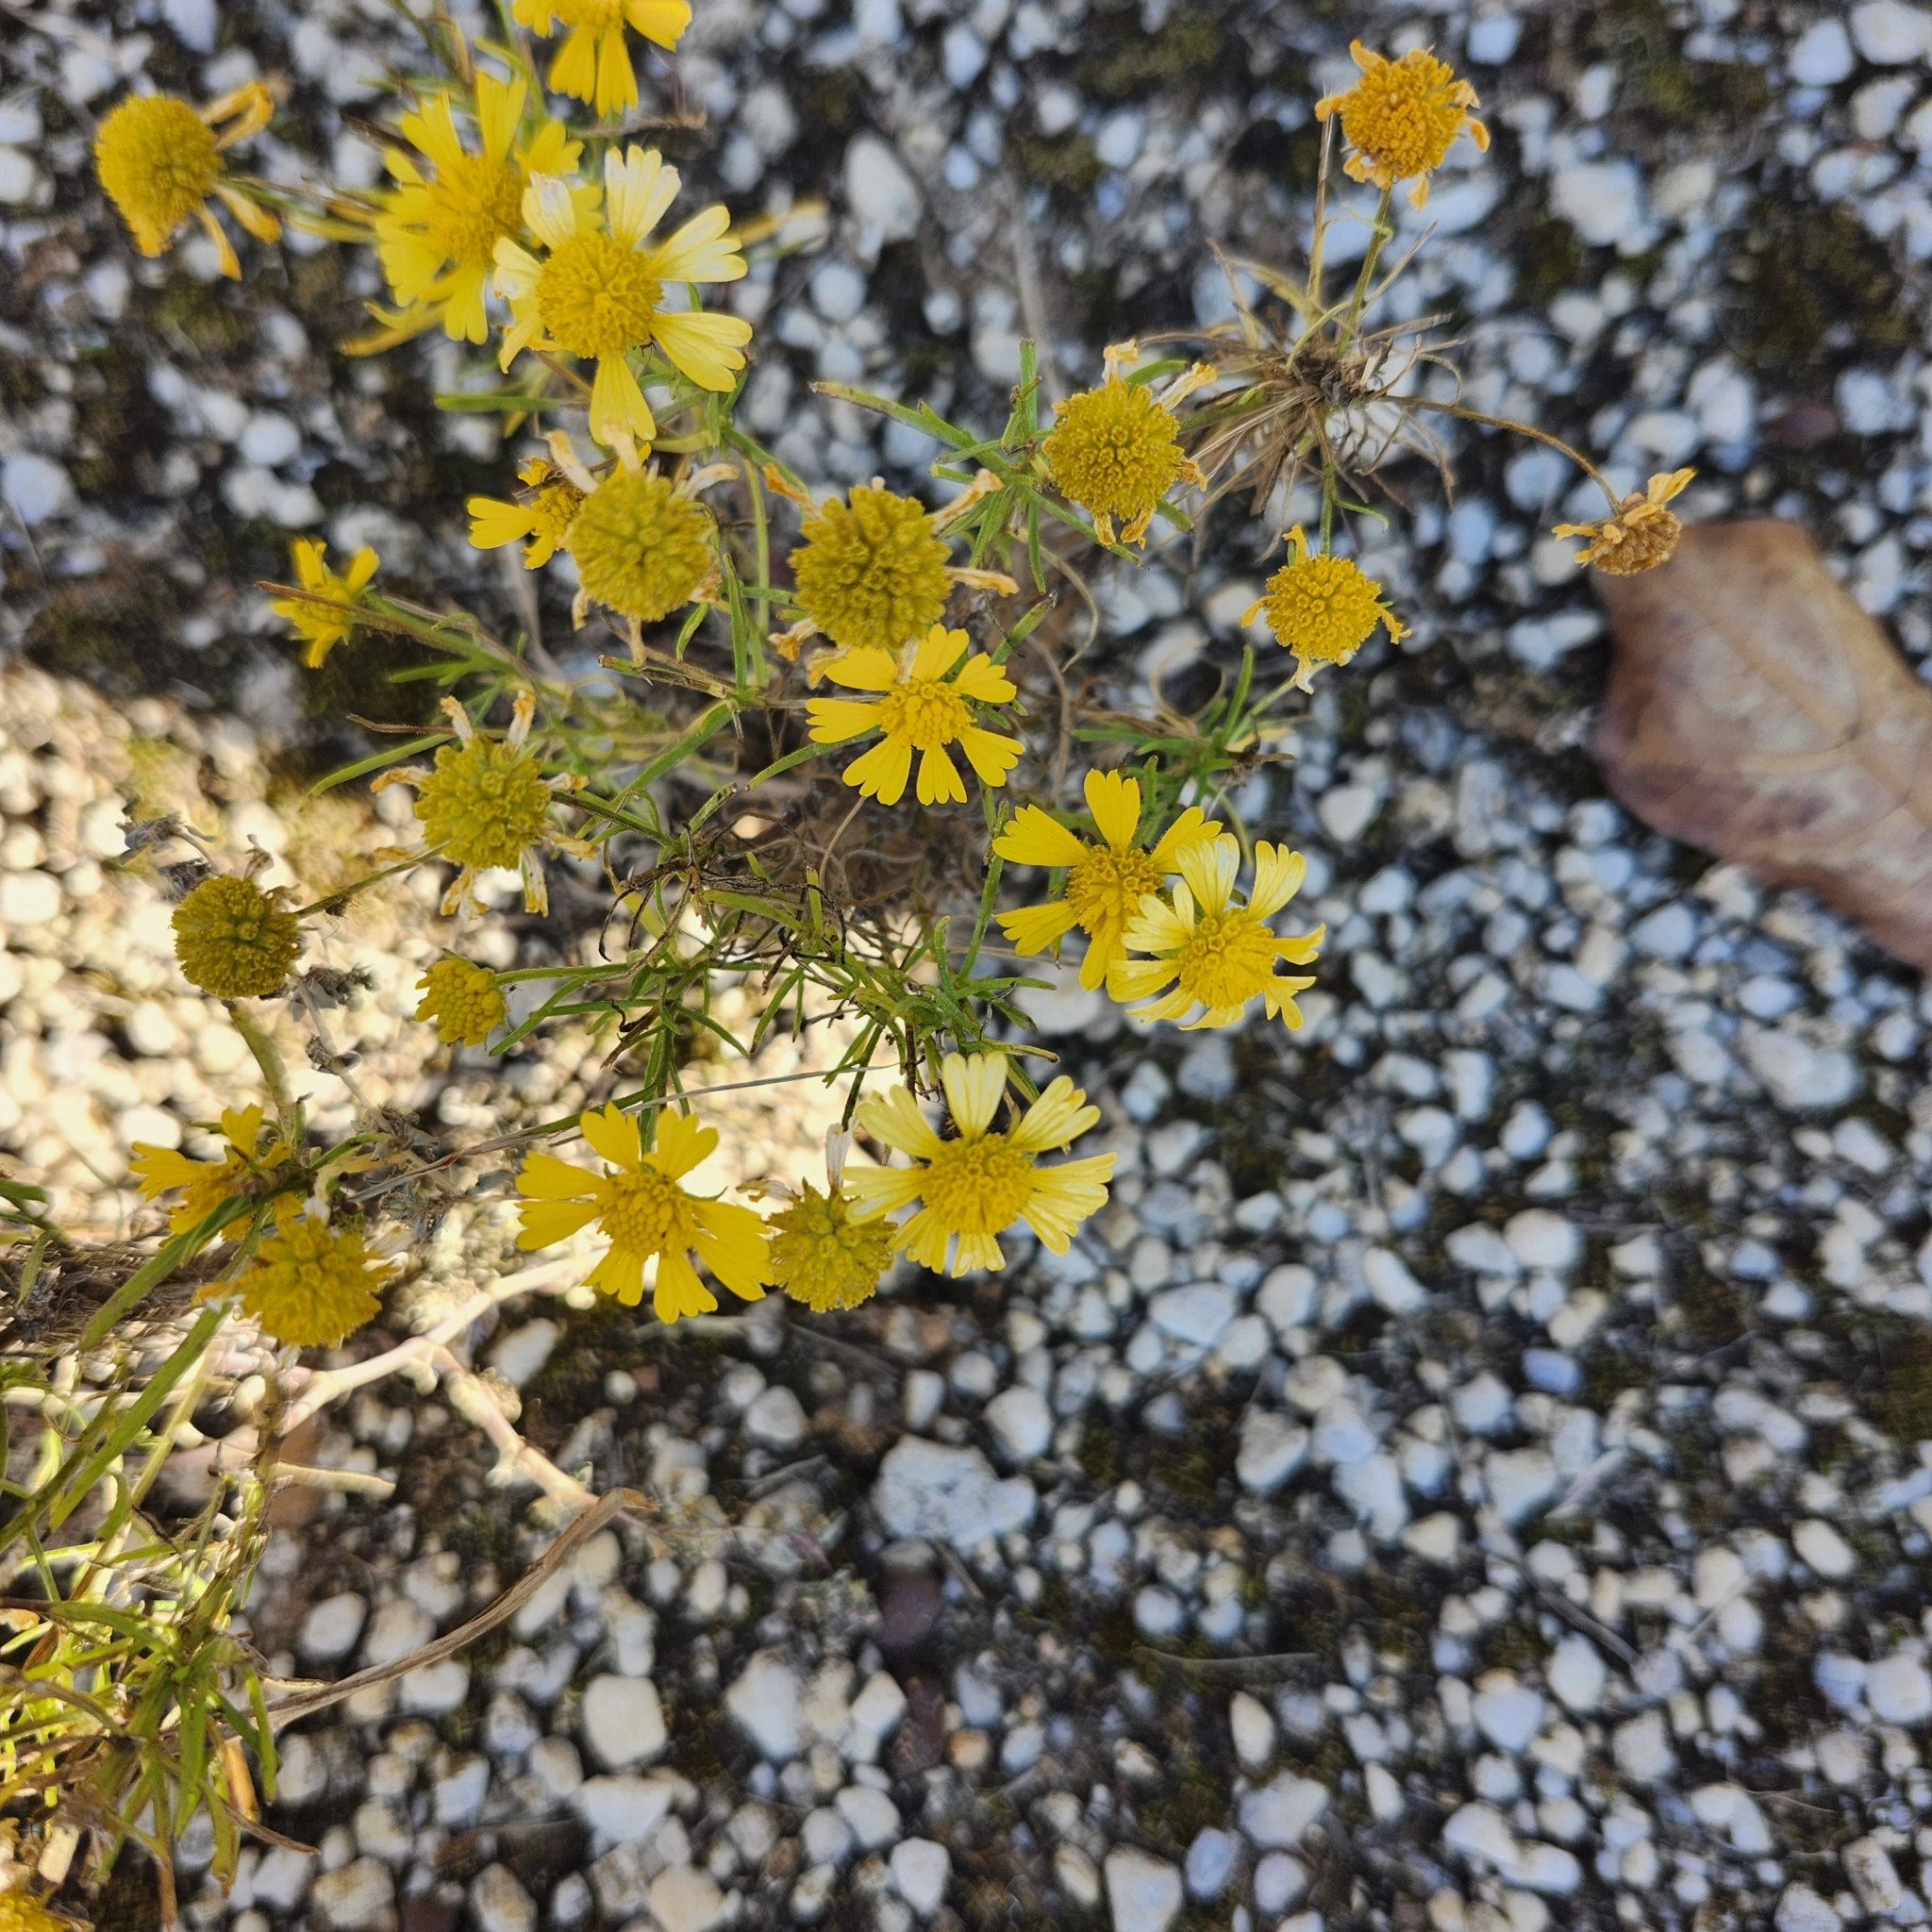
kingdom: Plantae
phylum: Tracheophyta
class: Magnoliopsida
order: Asterales
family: Asteraceae
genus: Helenium
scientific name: Helenium amarum
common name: Bitter sneezeweed
